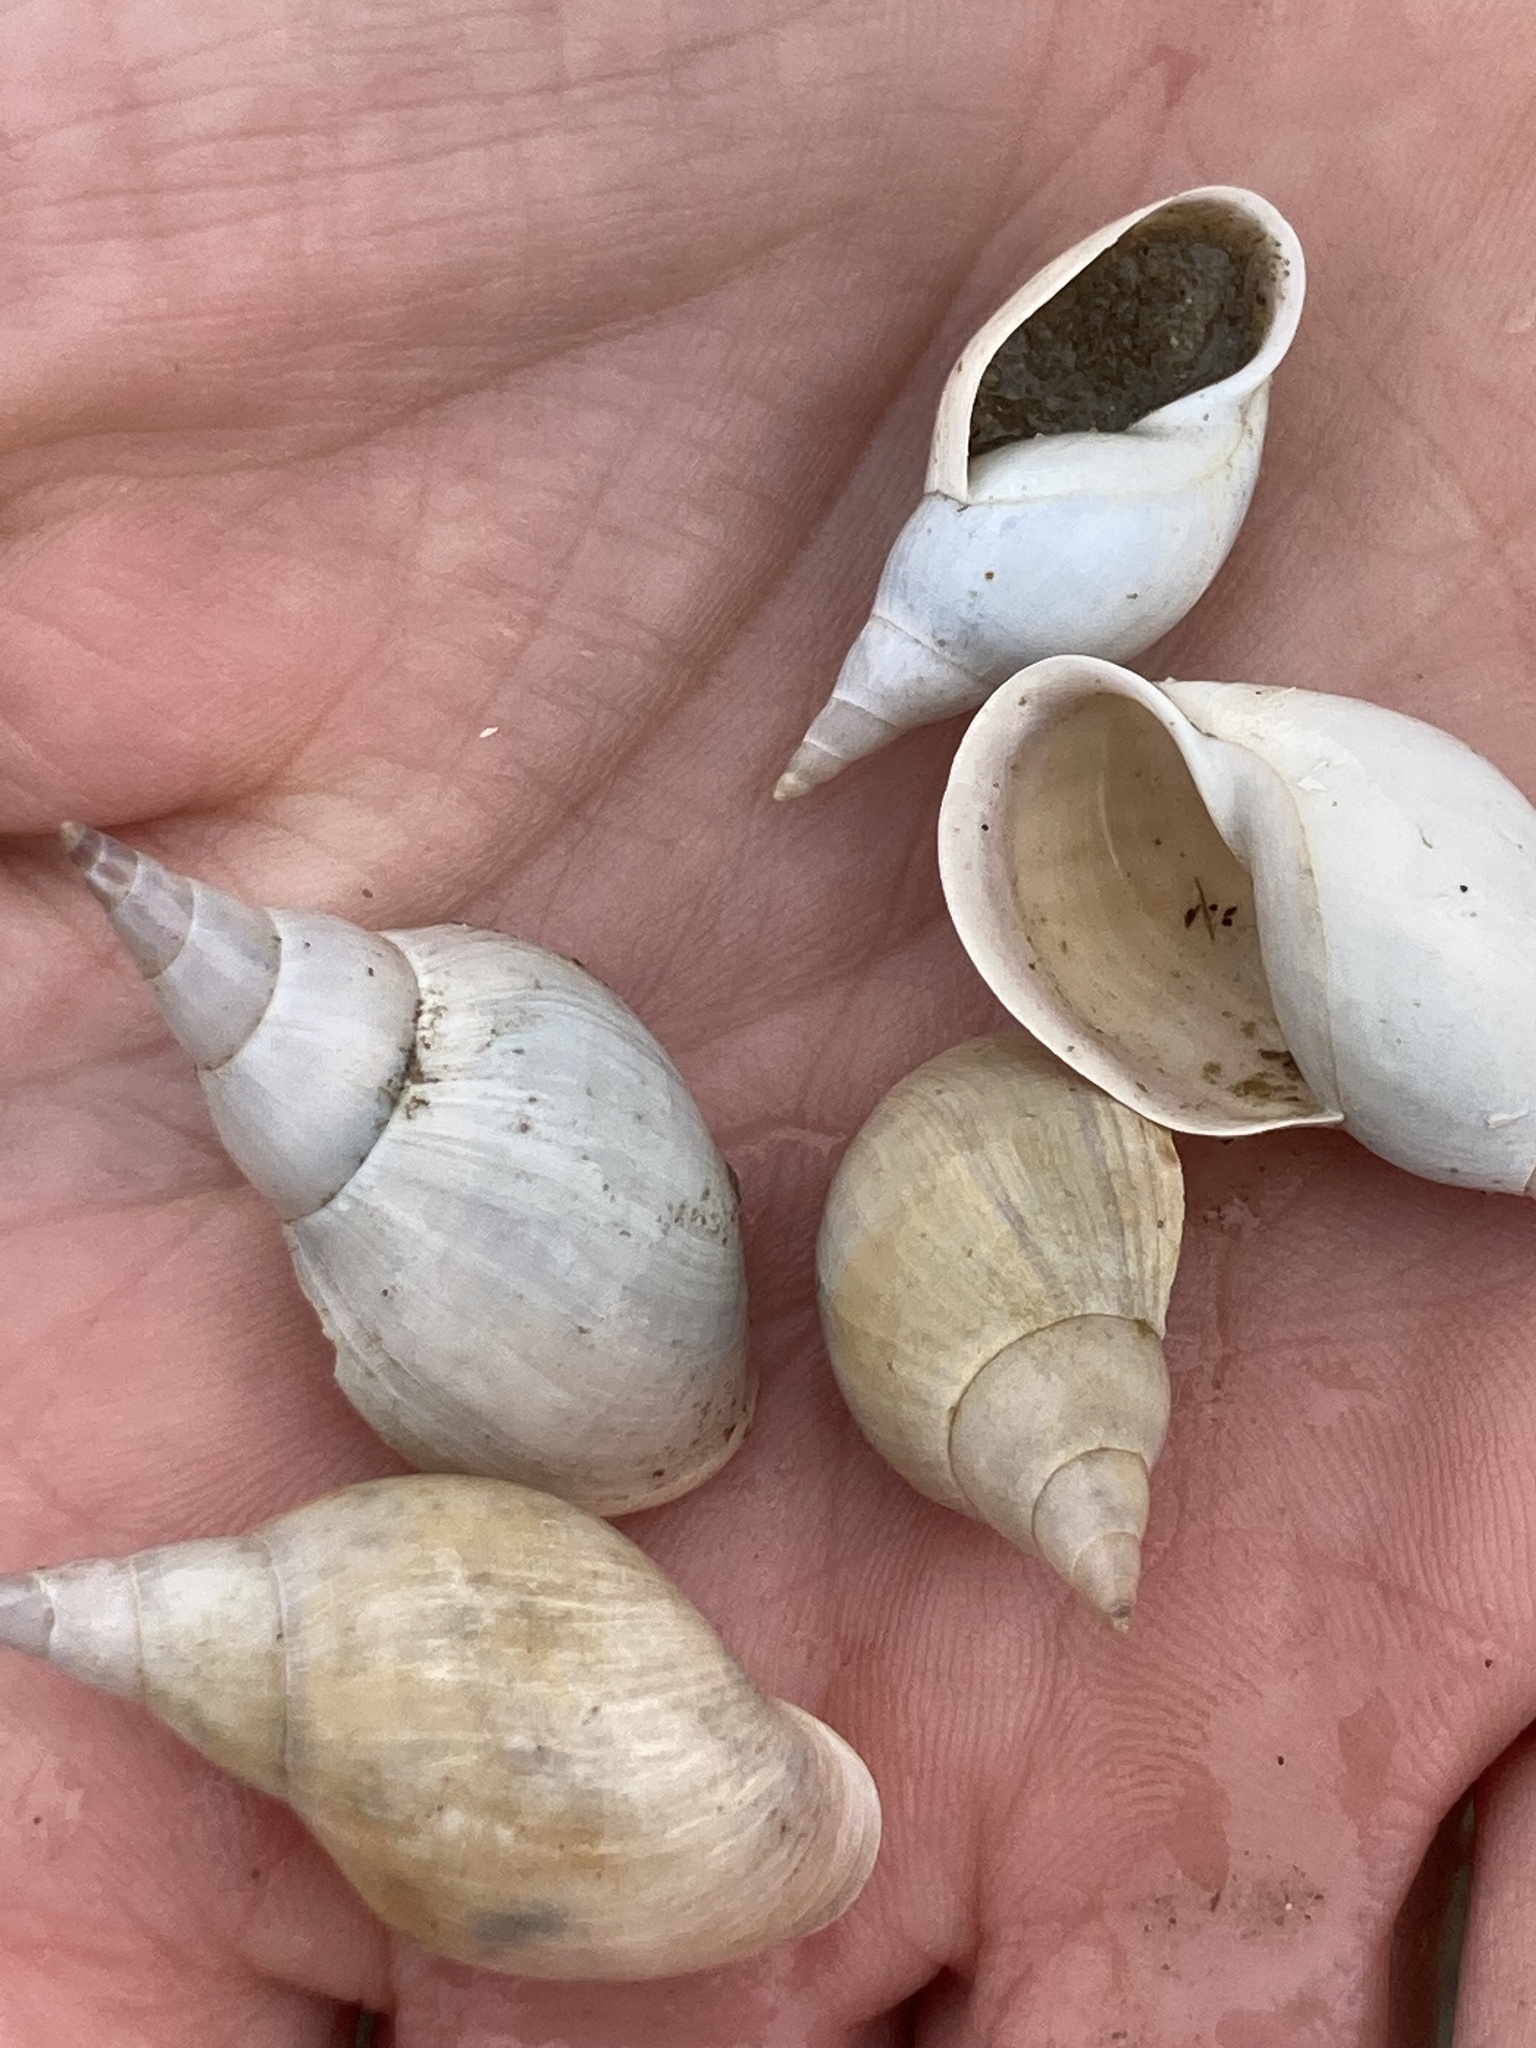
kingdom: Animalia
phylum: Mollusca
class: Gastropoda
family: Lymnaeidae
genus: Lymnaea
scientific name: Lymnaea stagnalis
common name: Great pond snail
